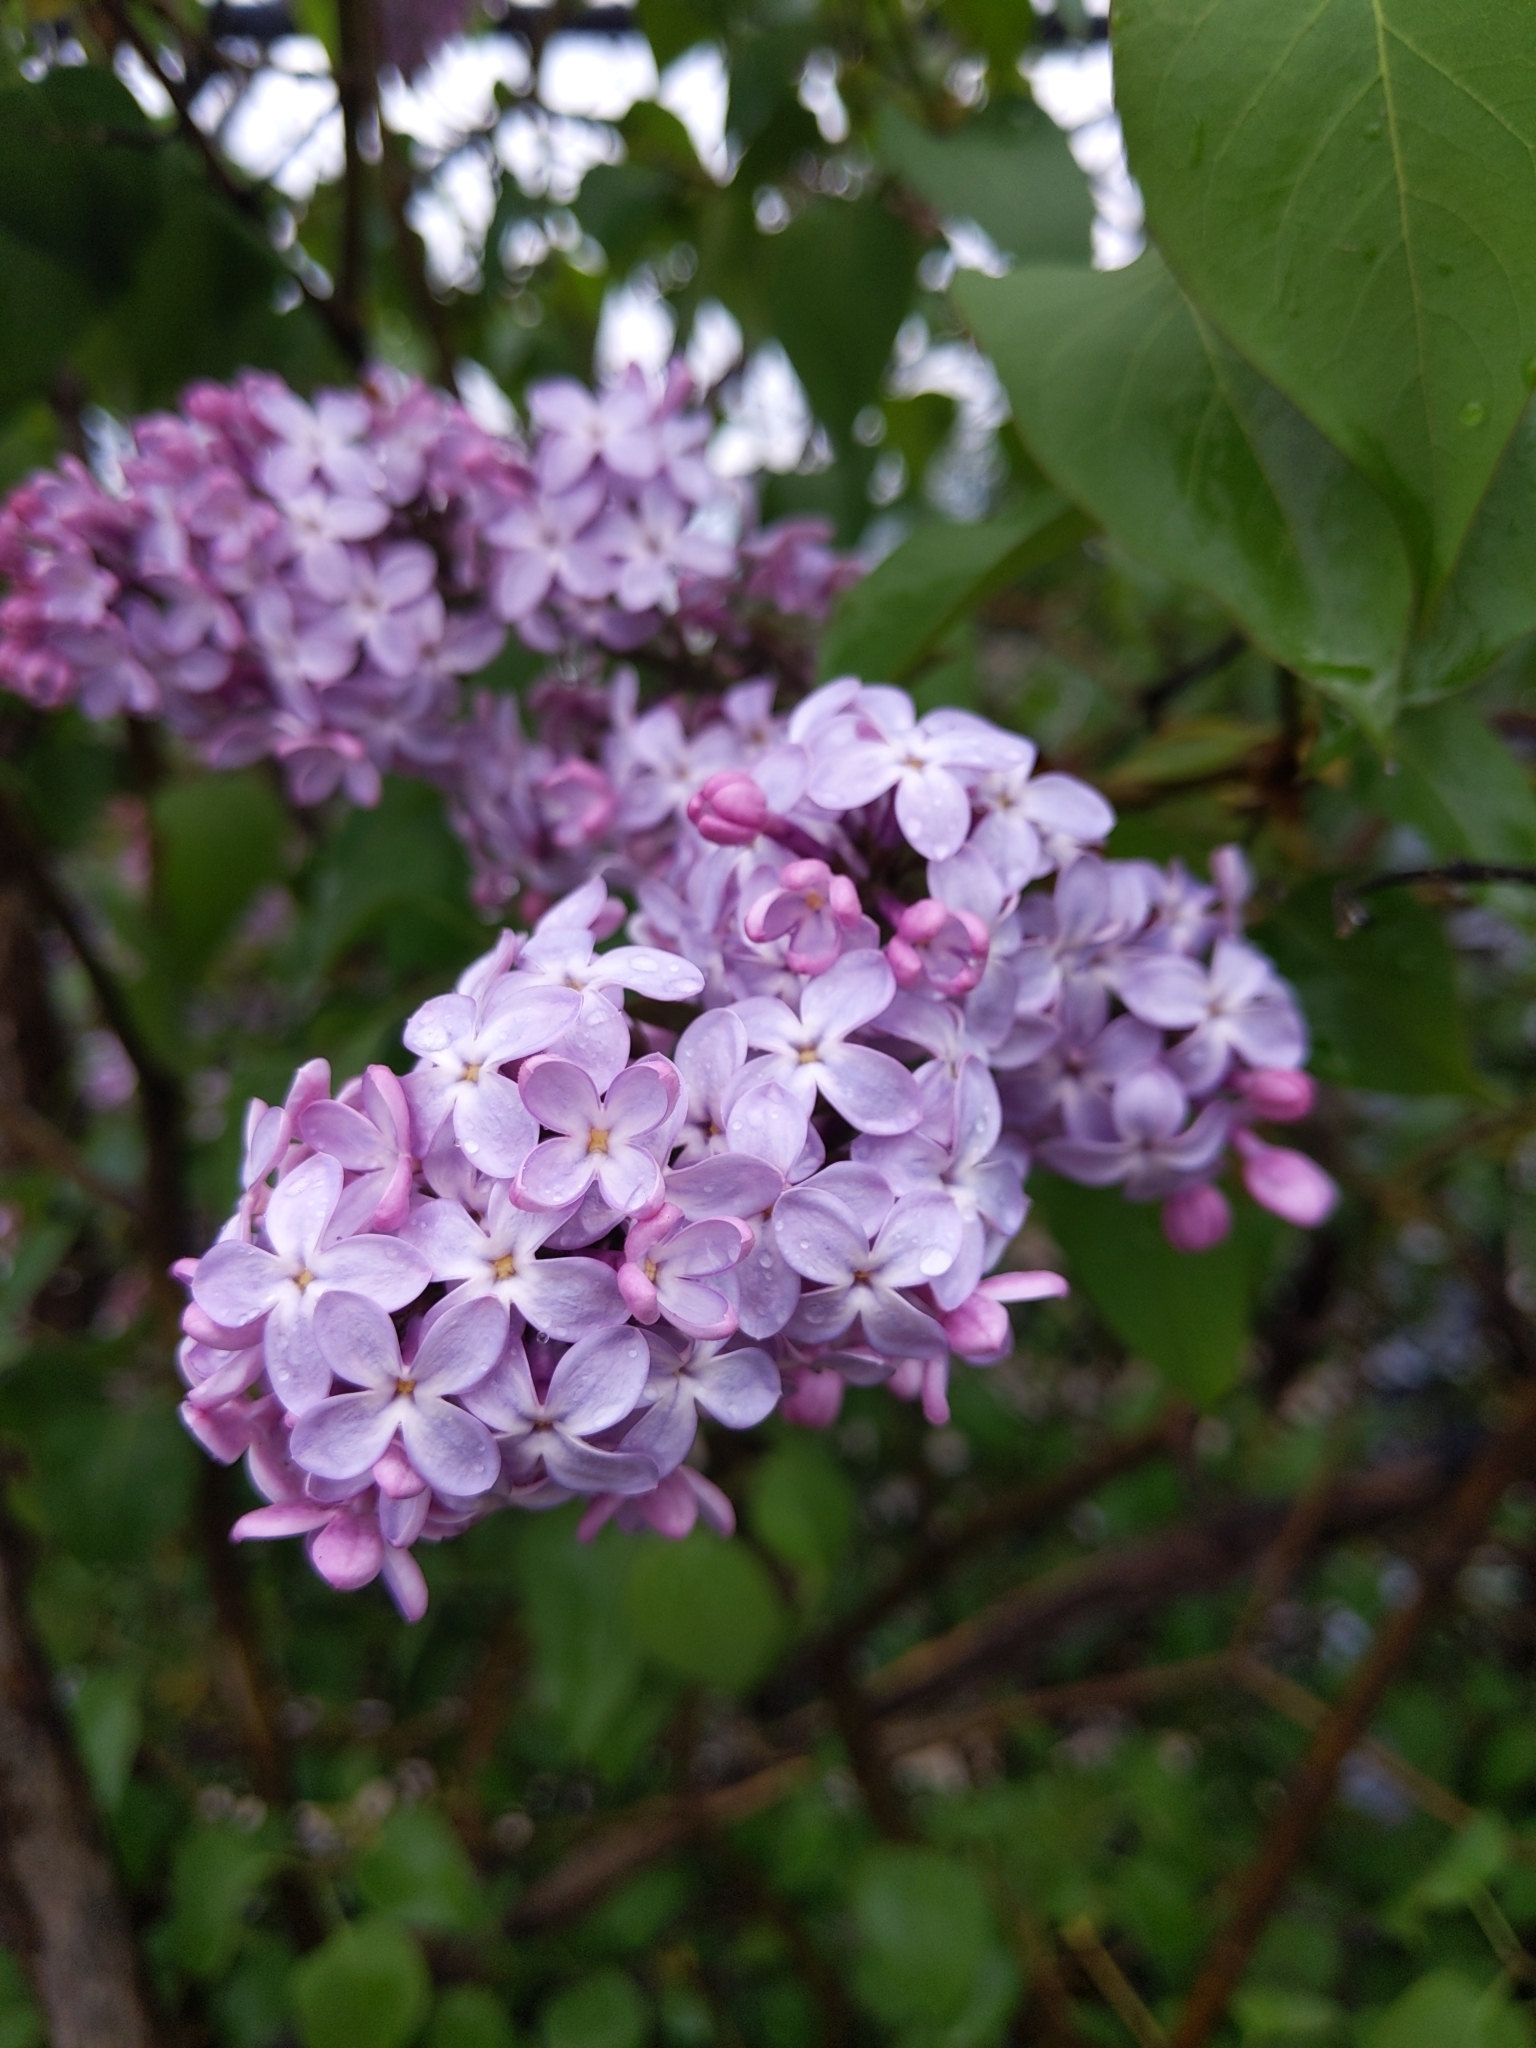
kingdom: Plantae
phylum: Tracheophyta
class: Magnoliopsida
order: Lamiales
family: Oleaceae
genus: Syringa
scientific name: Syringa vulgaris
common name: Common lilac
